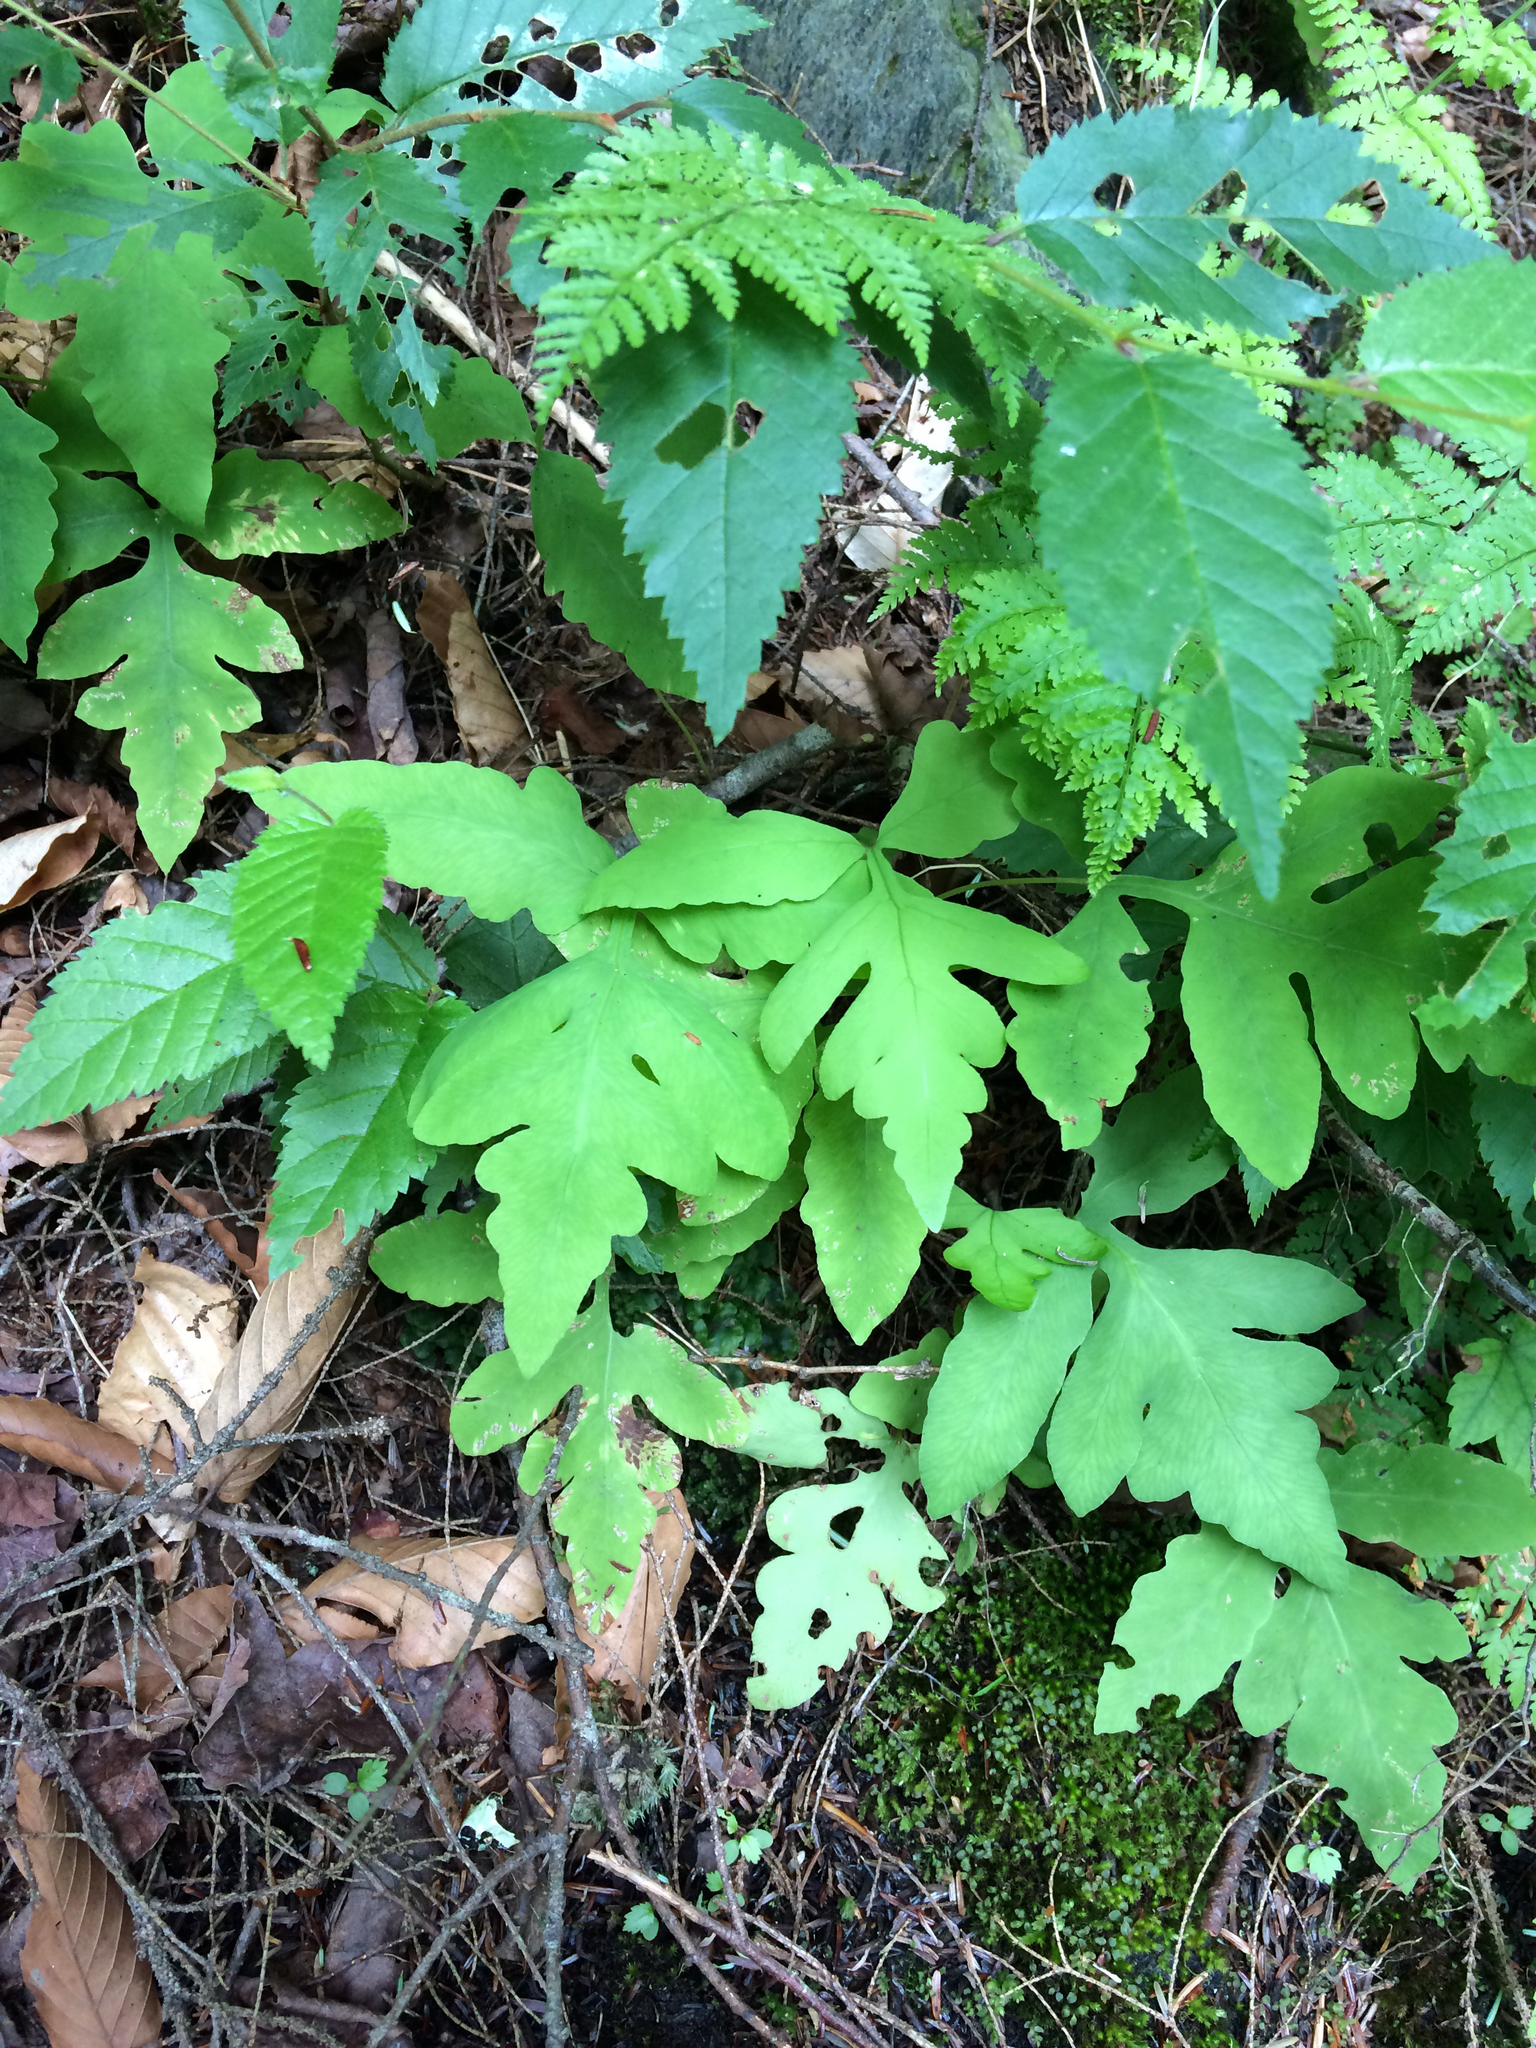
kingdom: Plantae
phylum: Tracheophyta
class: Polypodiopsida
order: Polypodiales
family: Onocleaceae
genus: Onoclea
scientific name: Onoclea sensibilis
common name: Sensitive fern
